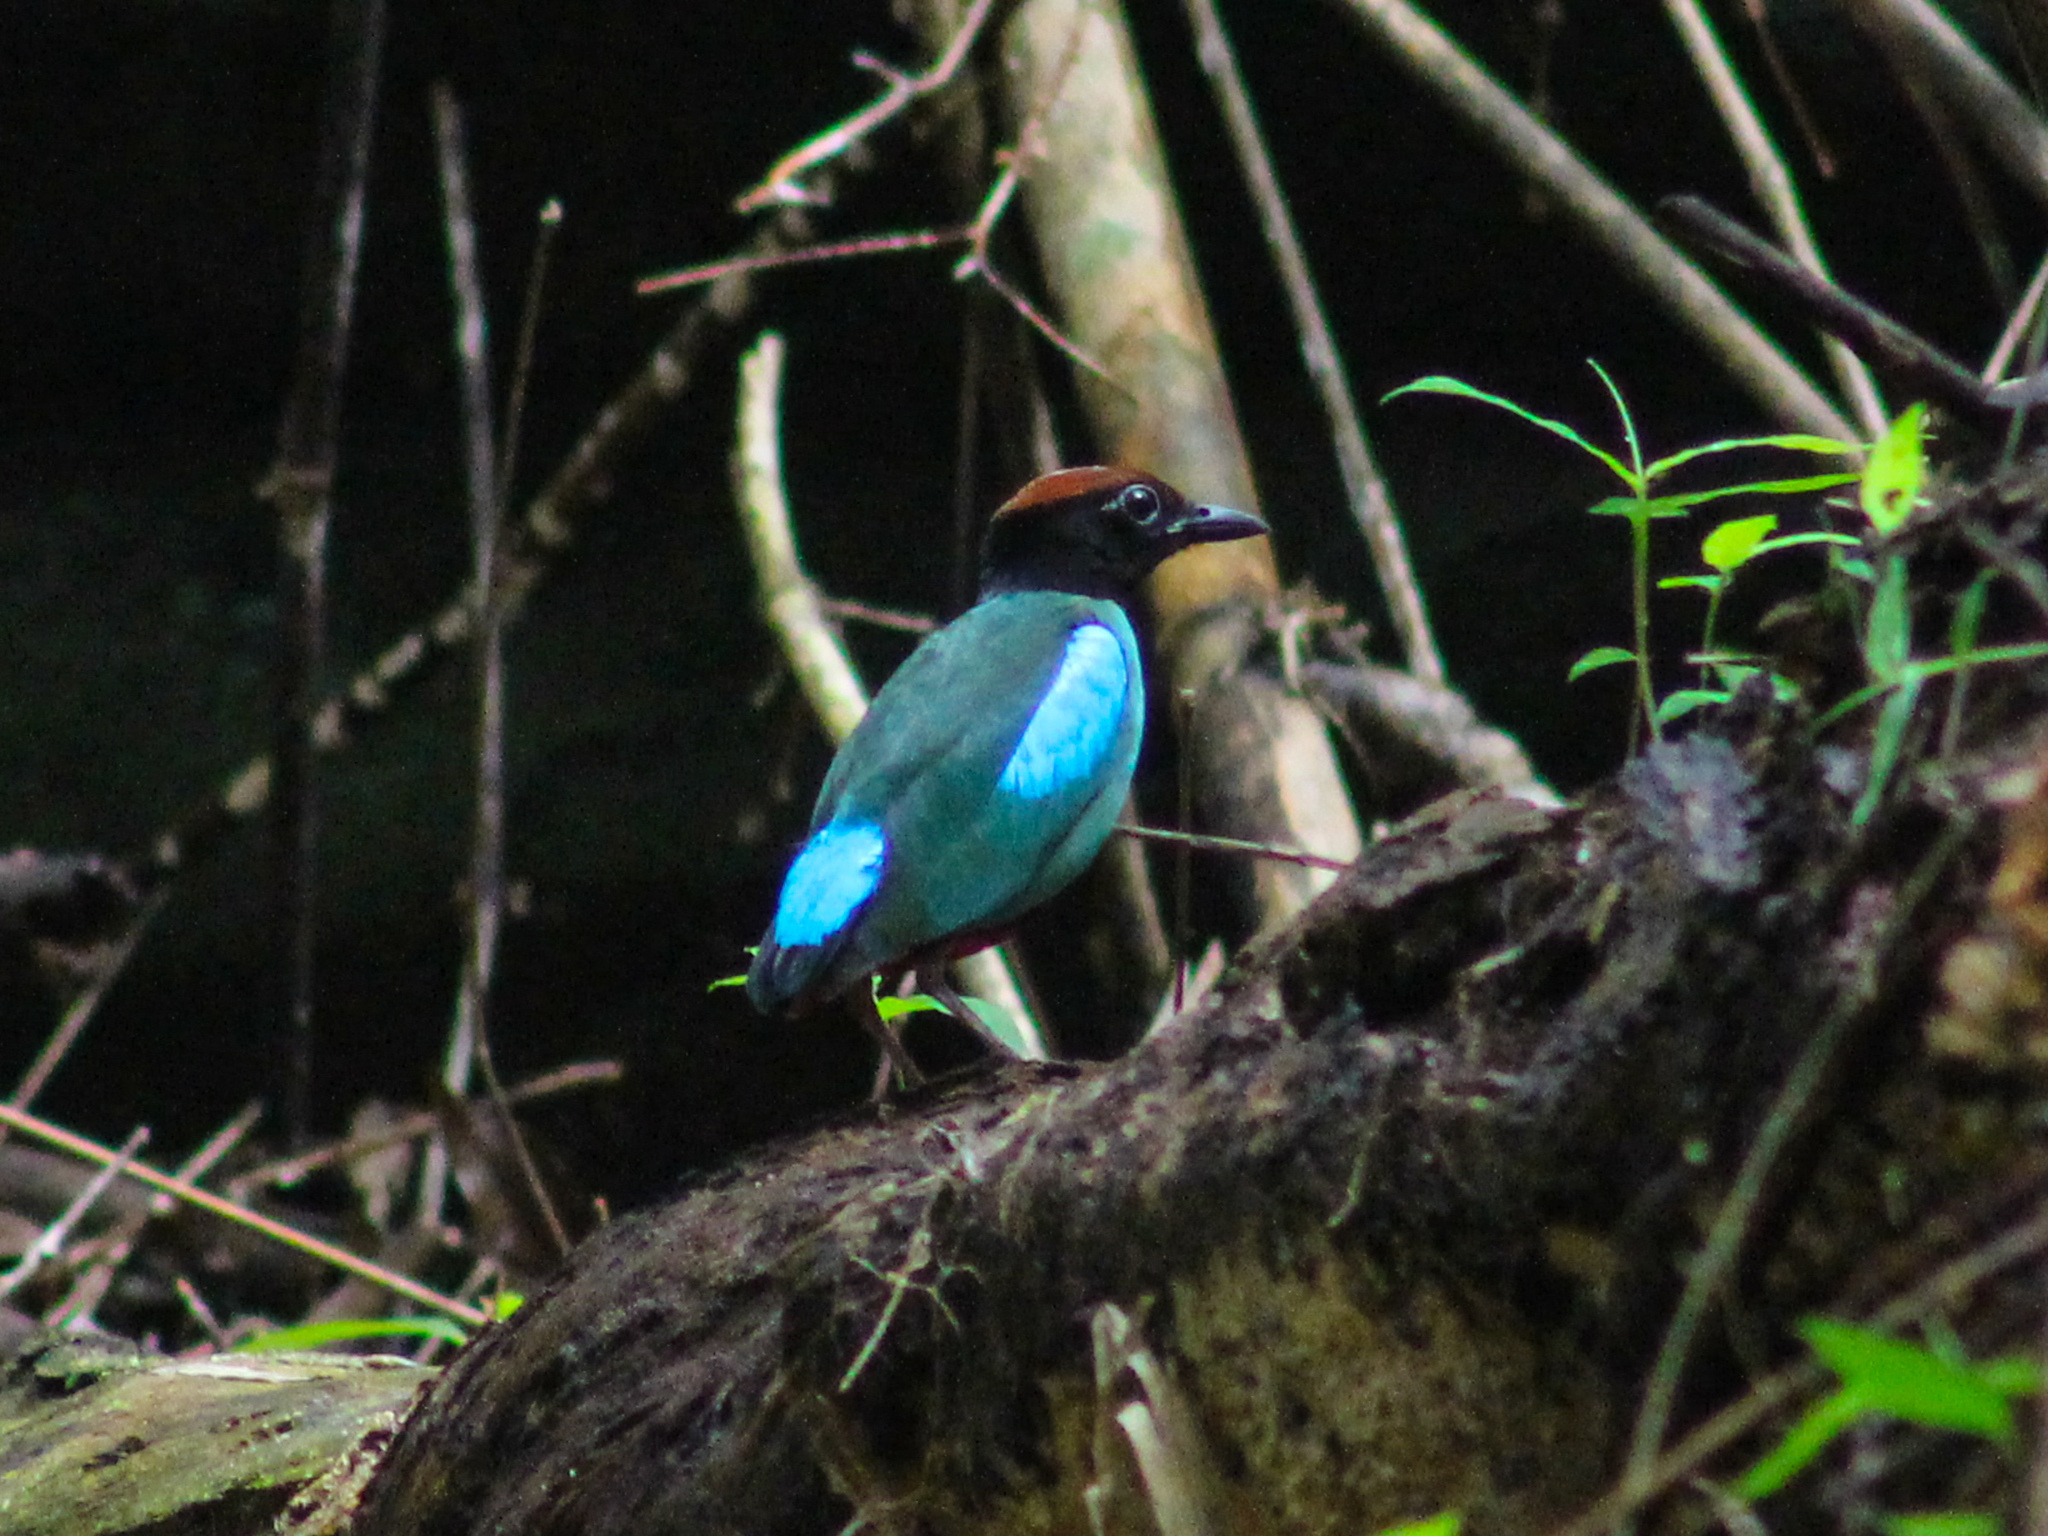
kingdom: Animalia
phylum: Chordata
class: Aves
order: Passeriformes
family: Pittidae
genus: Pitta
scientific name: Pitta sordida
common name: Hooded pitta
